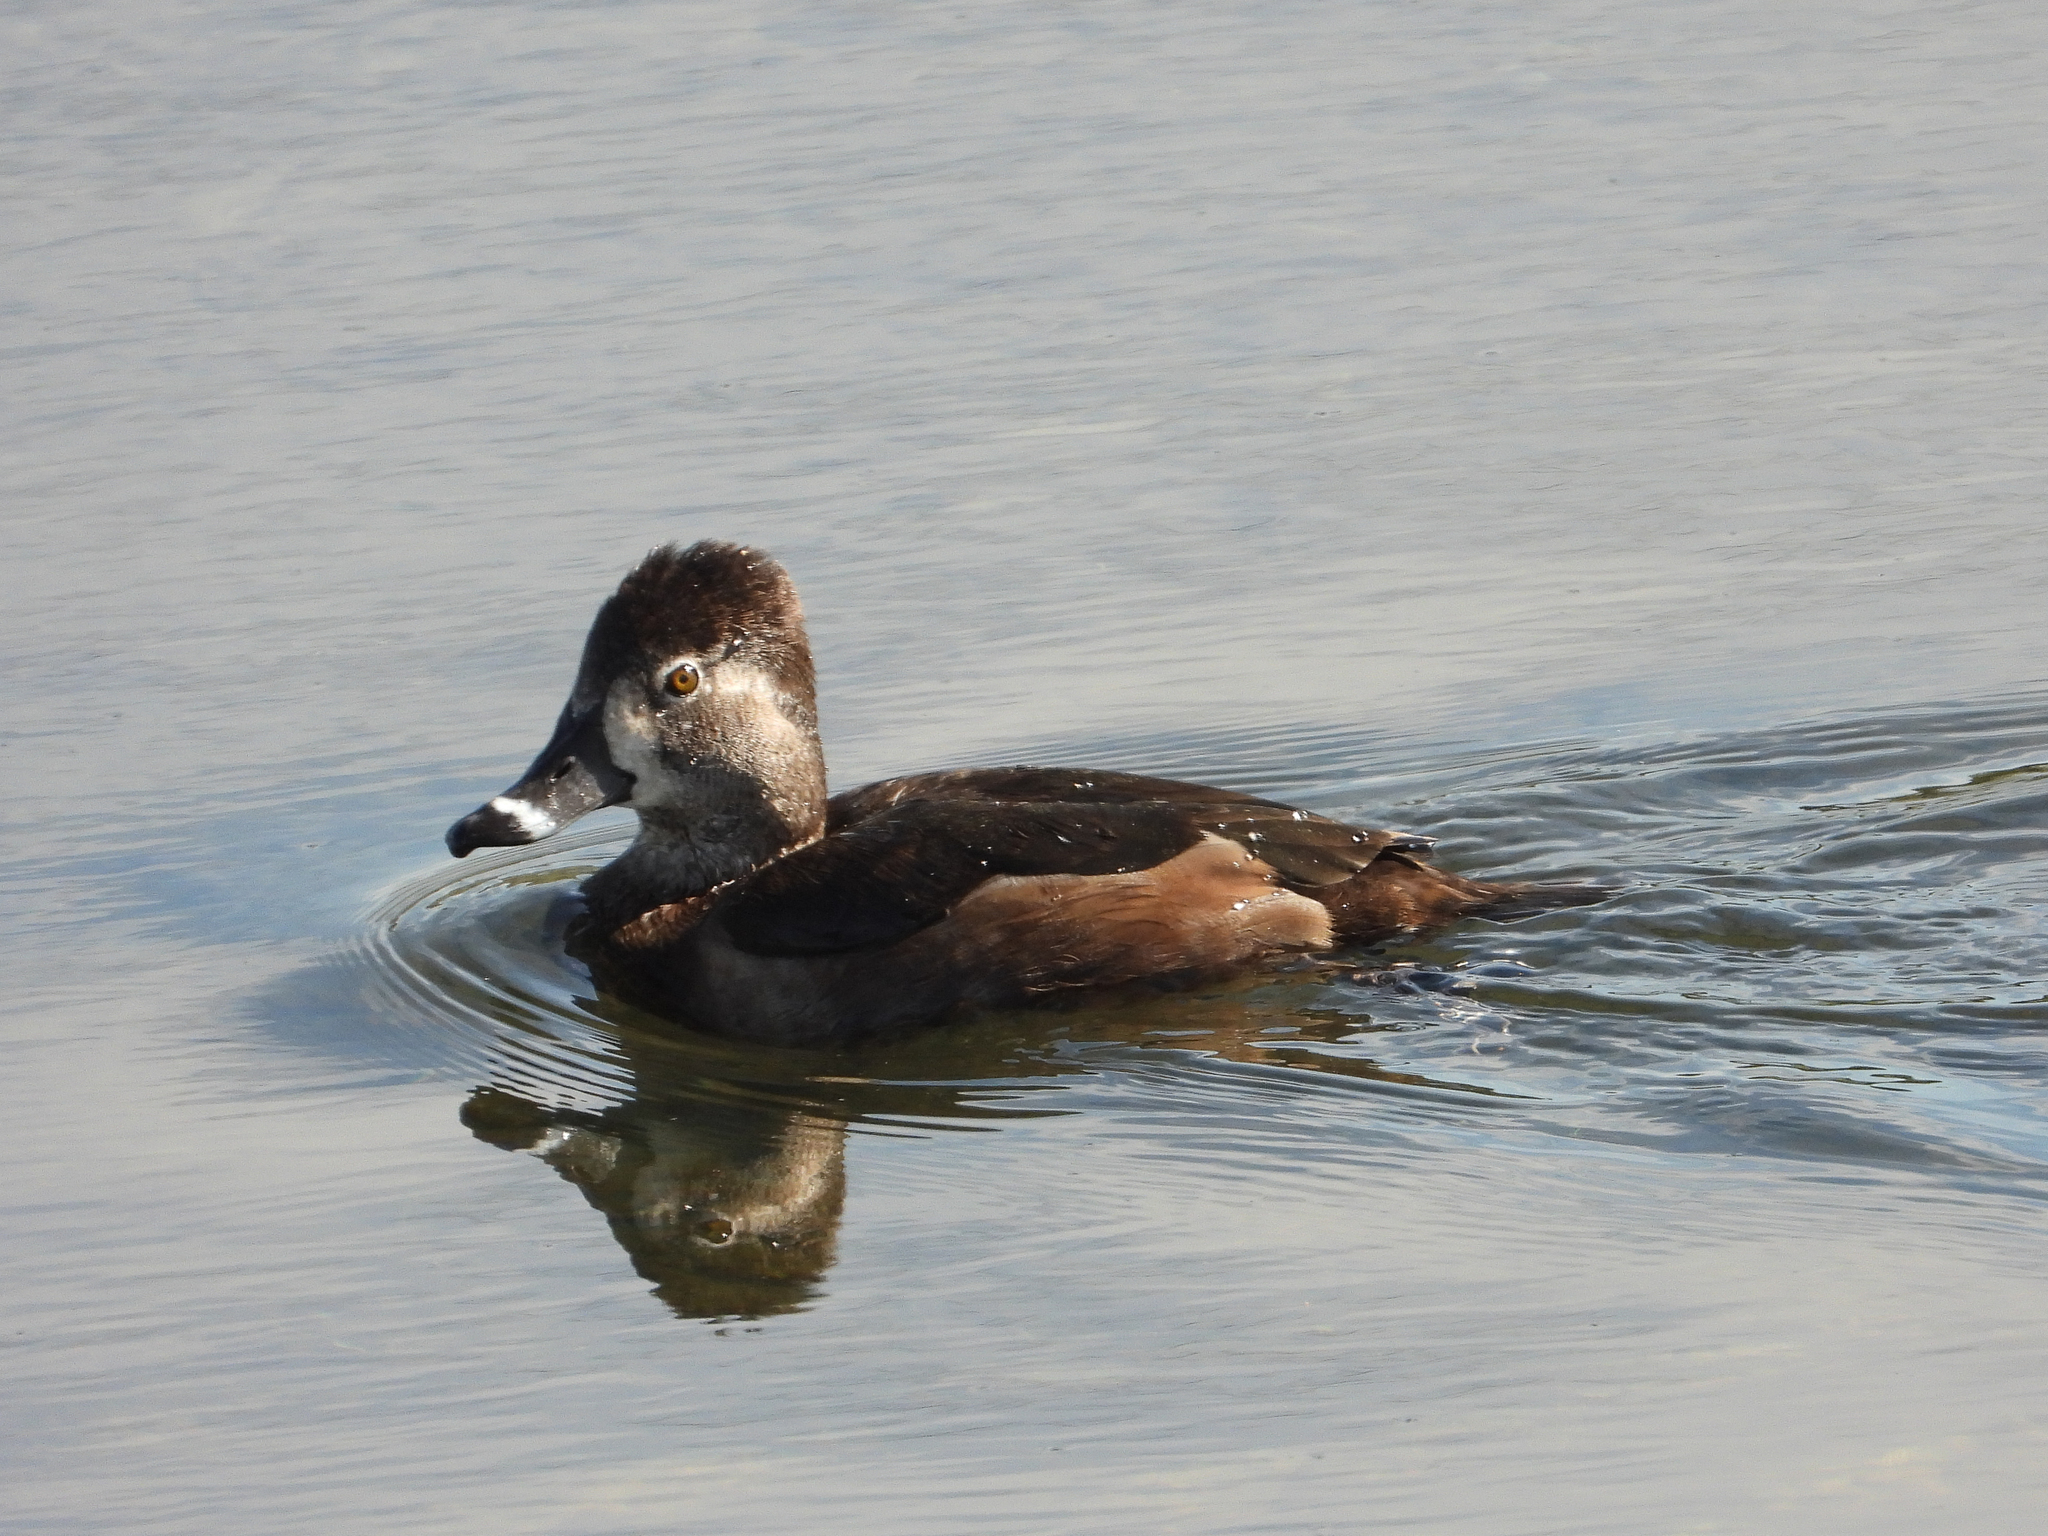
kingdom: Animalia
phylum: Chordata
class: Aves
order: Anseriformes
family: Anatidae
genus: Aythya
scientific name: Aythya collaris
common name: Ring-necked duck
